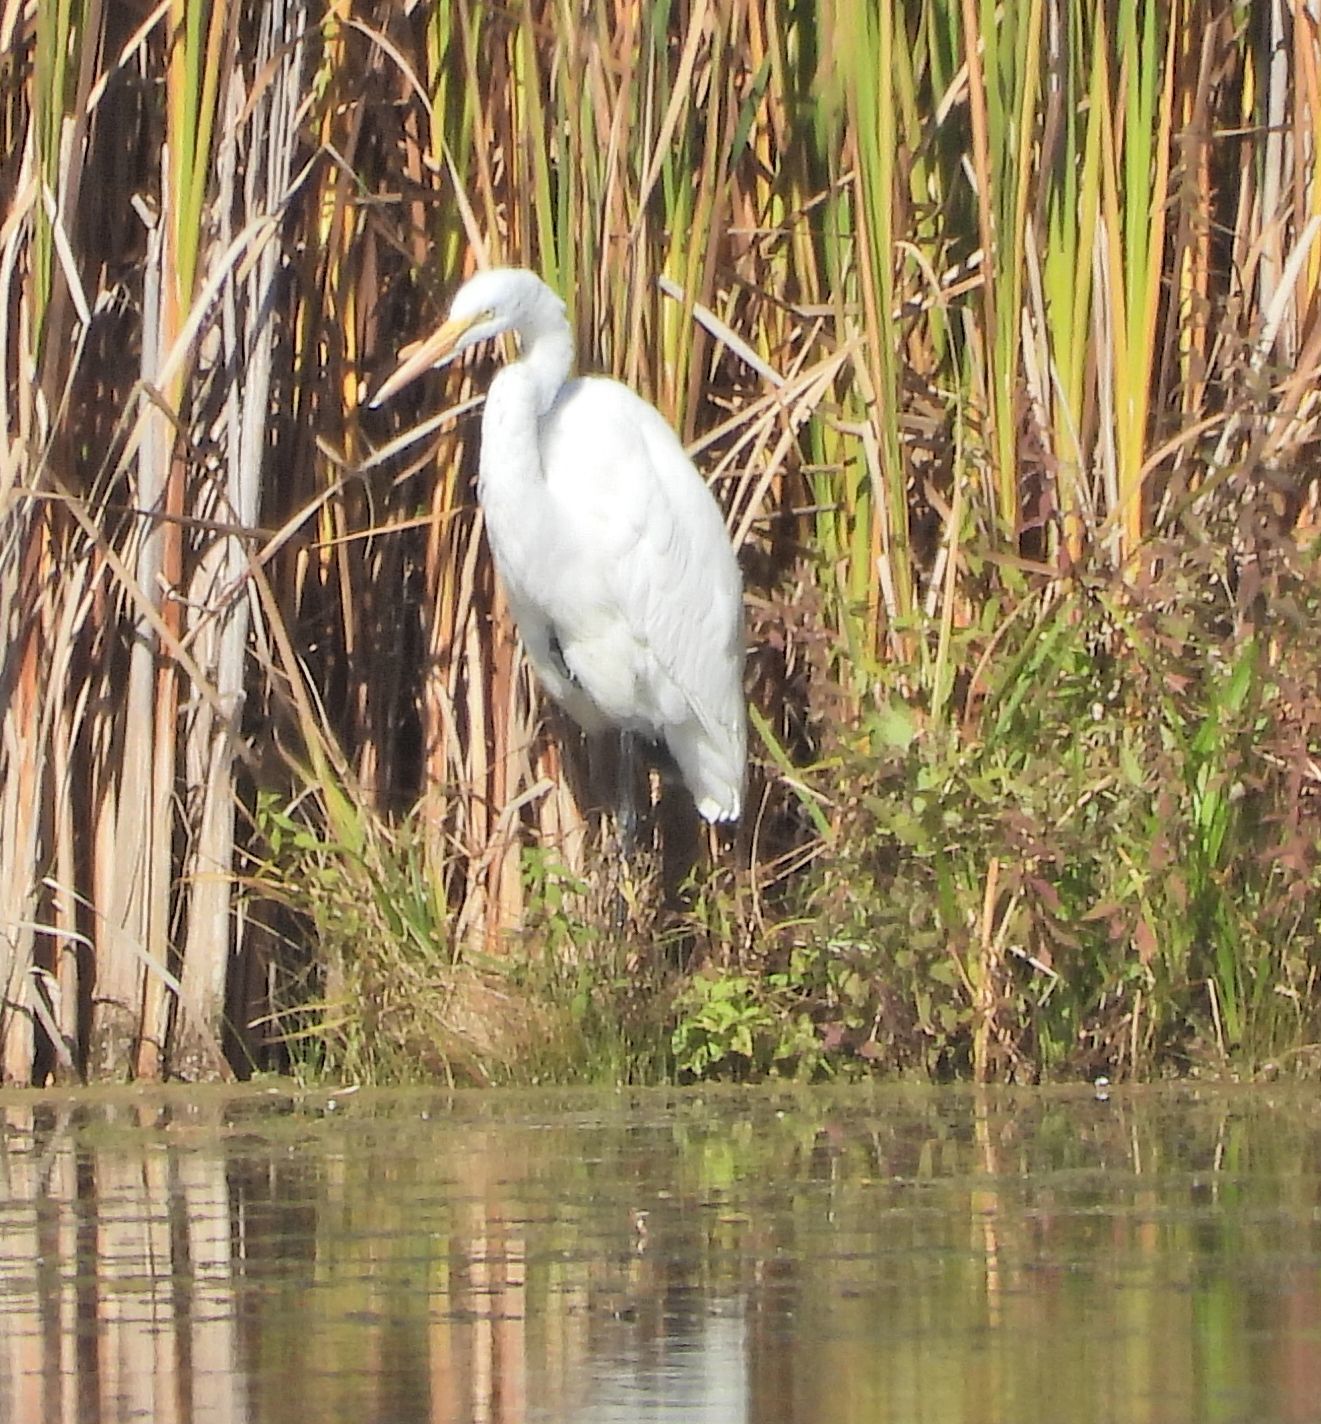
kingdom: Animalia
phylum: Chordata
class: Aves
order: Pelecaniformes
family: Ardeidae
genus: Ardea
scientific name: Ardea alba
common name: Great egret
